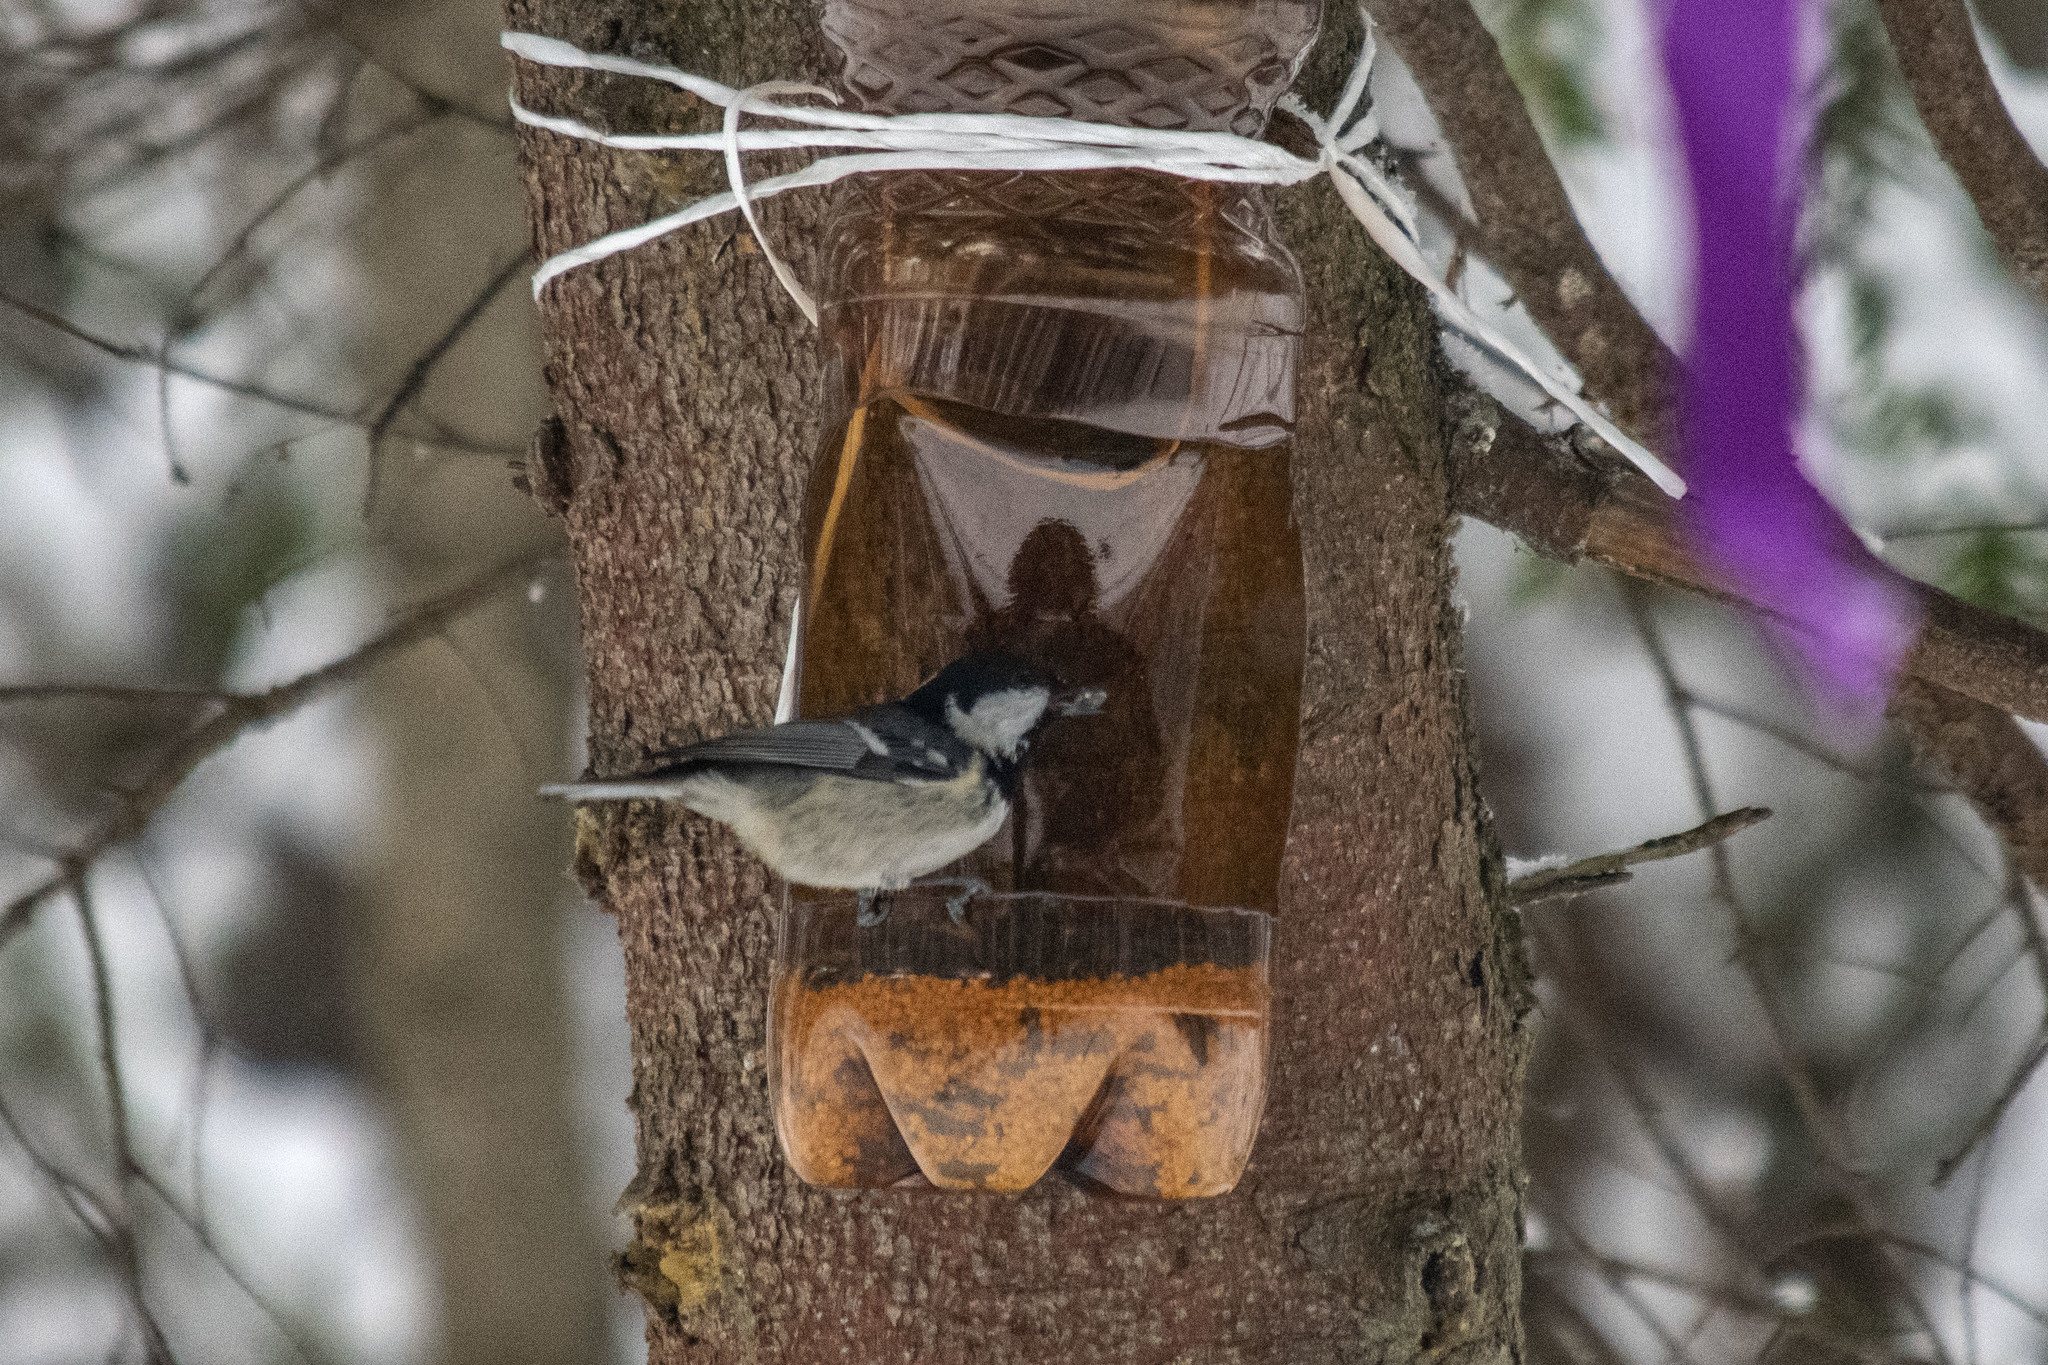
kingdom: Animalia
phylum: Chordata
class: Aves
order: Passeriformes
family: Paridae
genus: Periparus
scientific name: Periparus ater
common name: Coal tit
